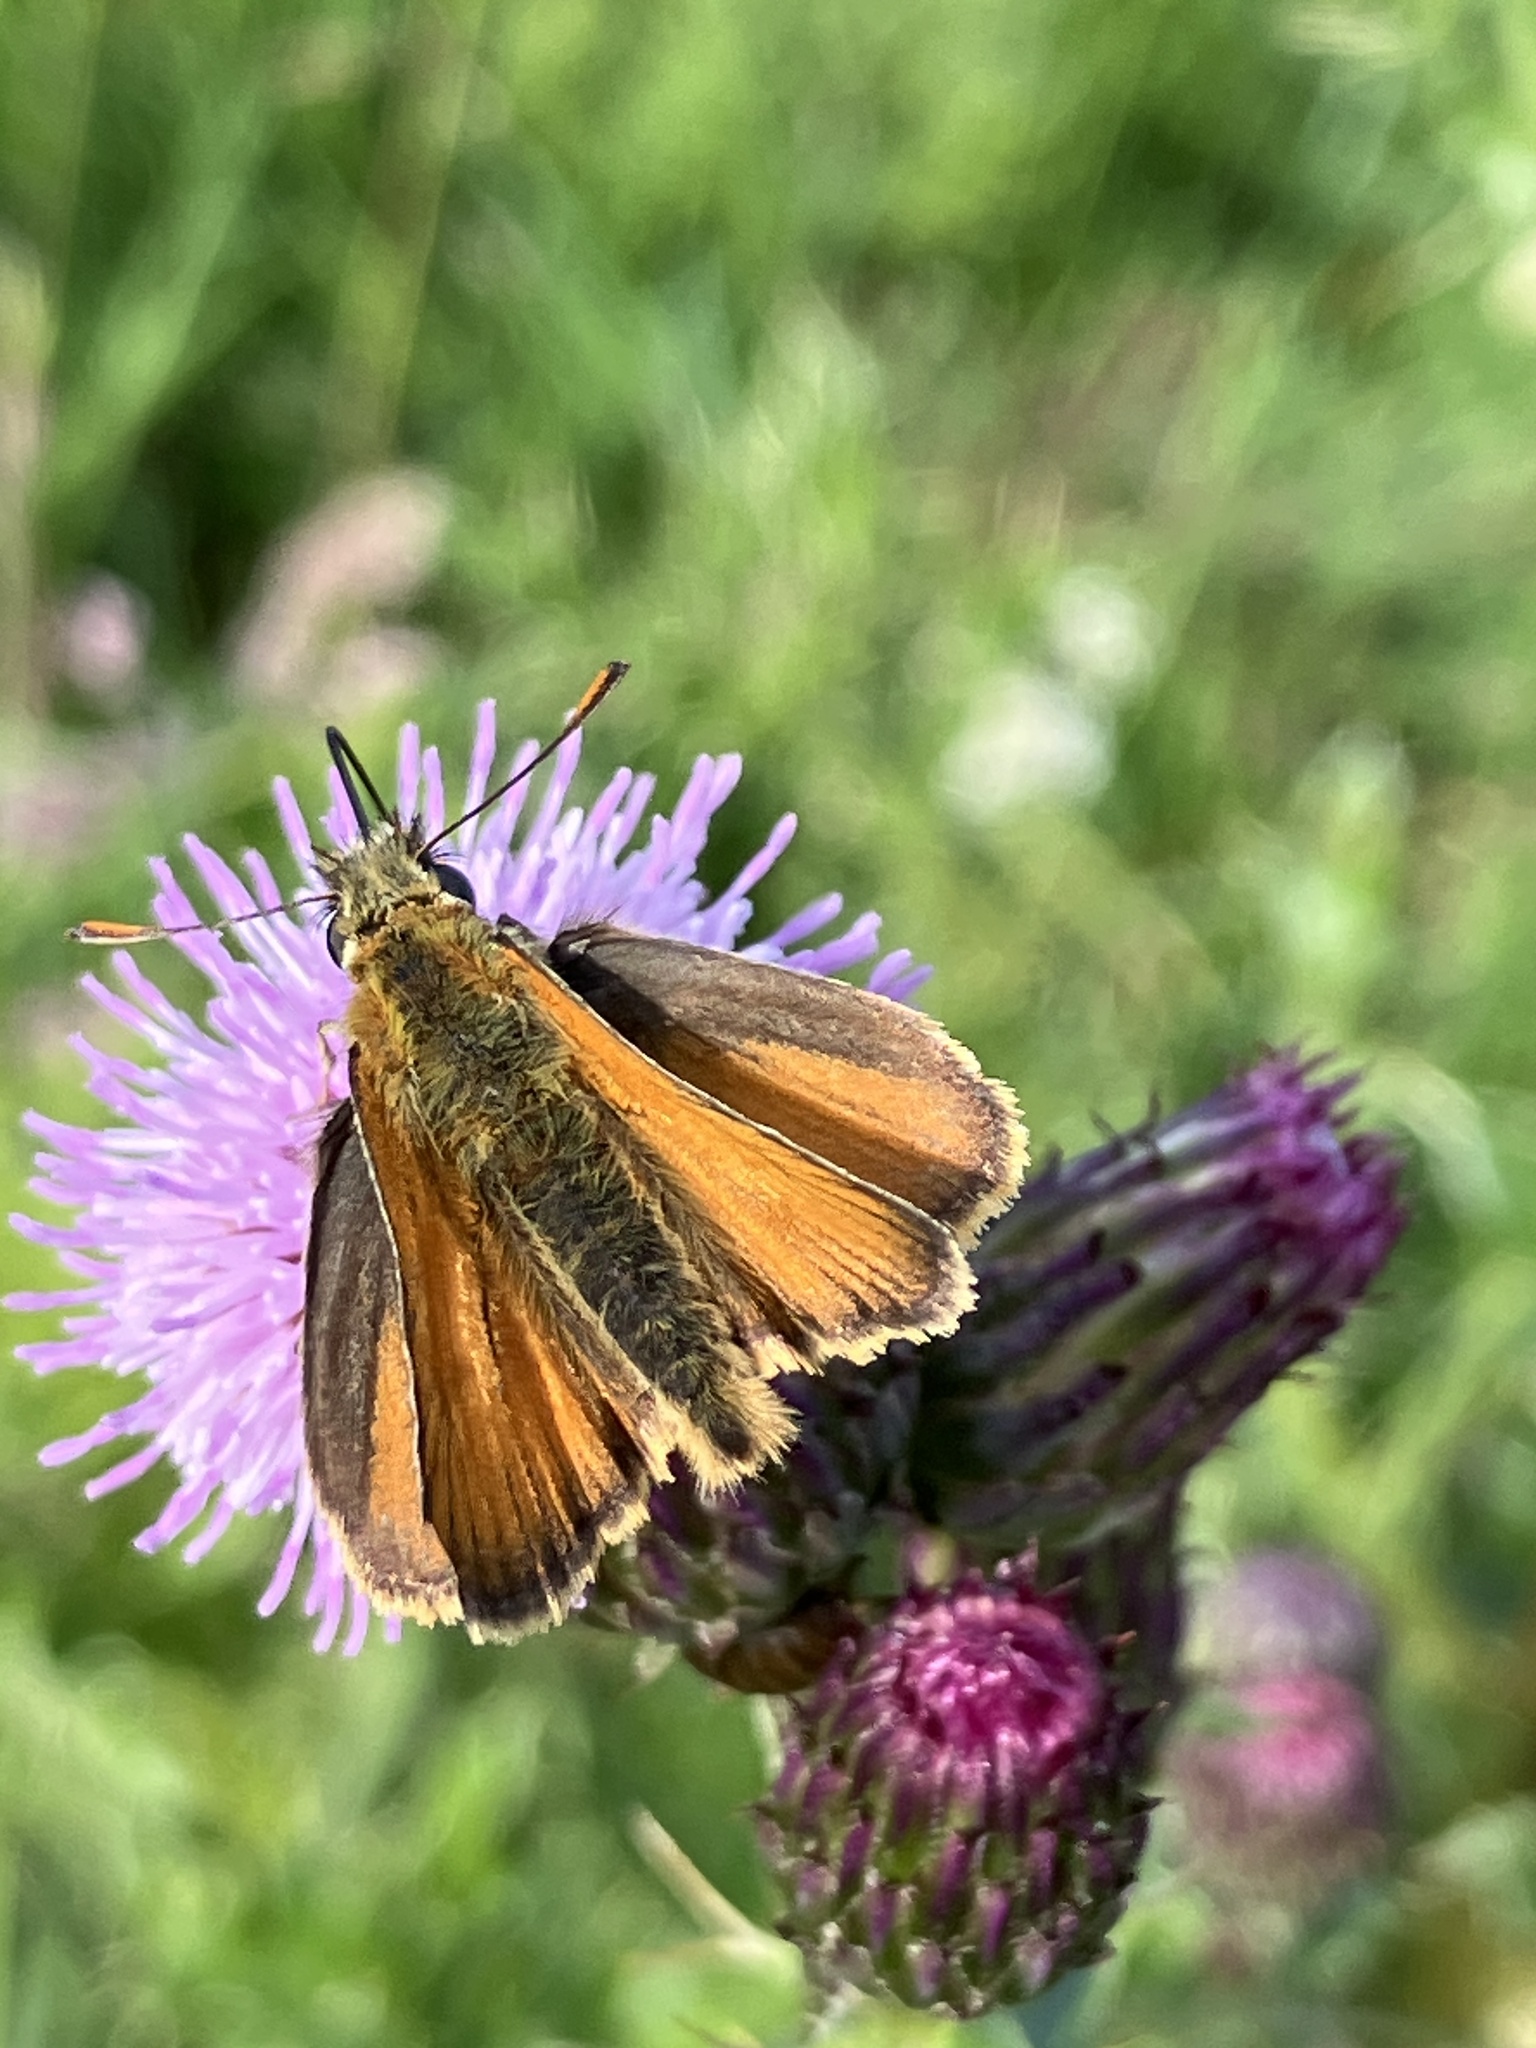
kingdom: Animalia
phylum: Arthropoda
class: Insecta
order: Lepidoptera
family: Hesperiidae
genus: Thymelicus
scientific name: Thymelicus sylvestris
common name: Small skipper
